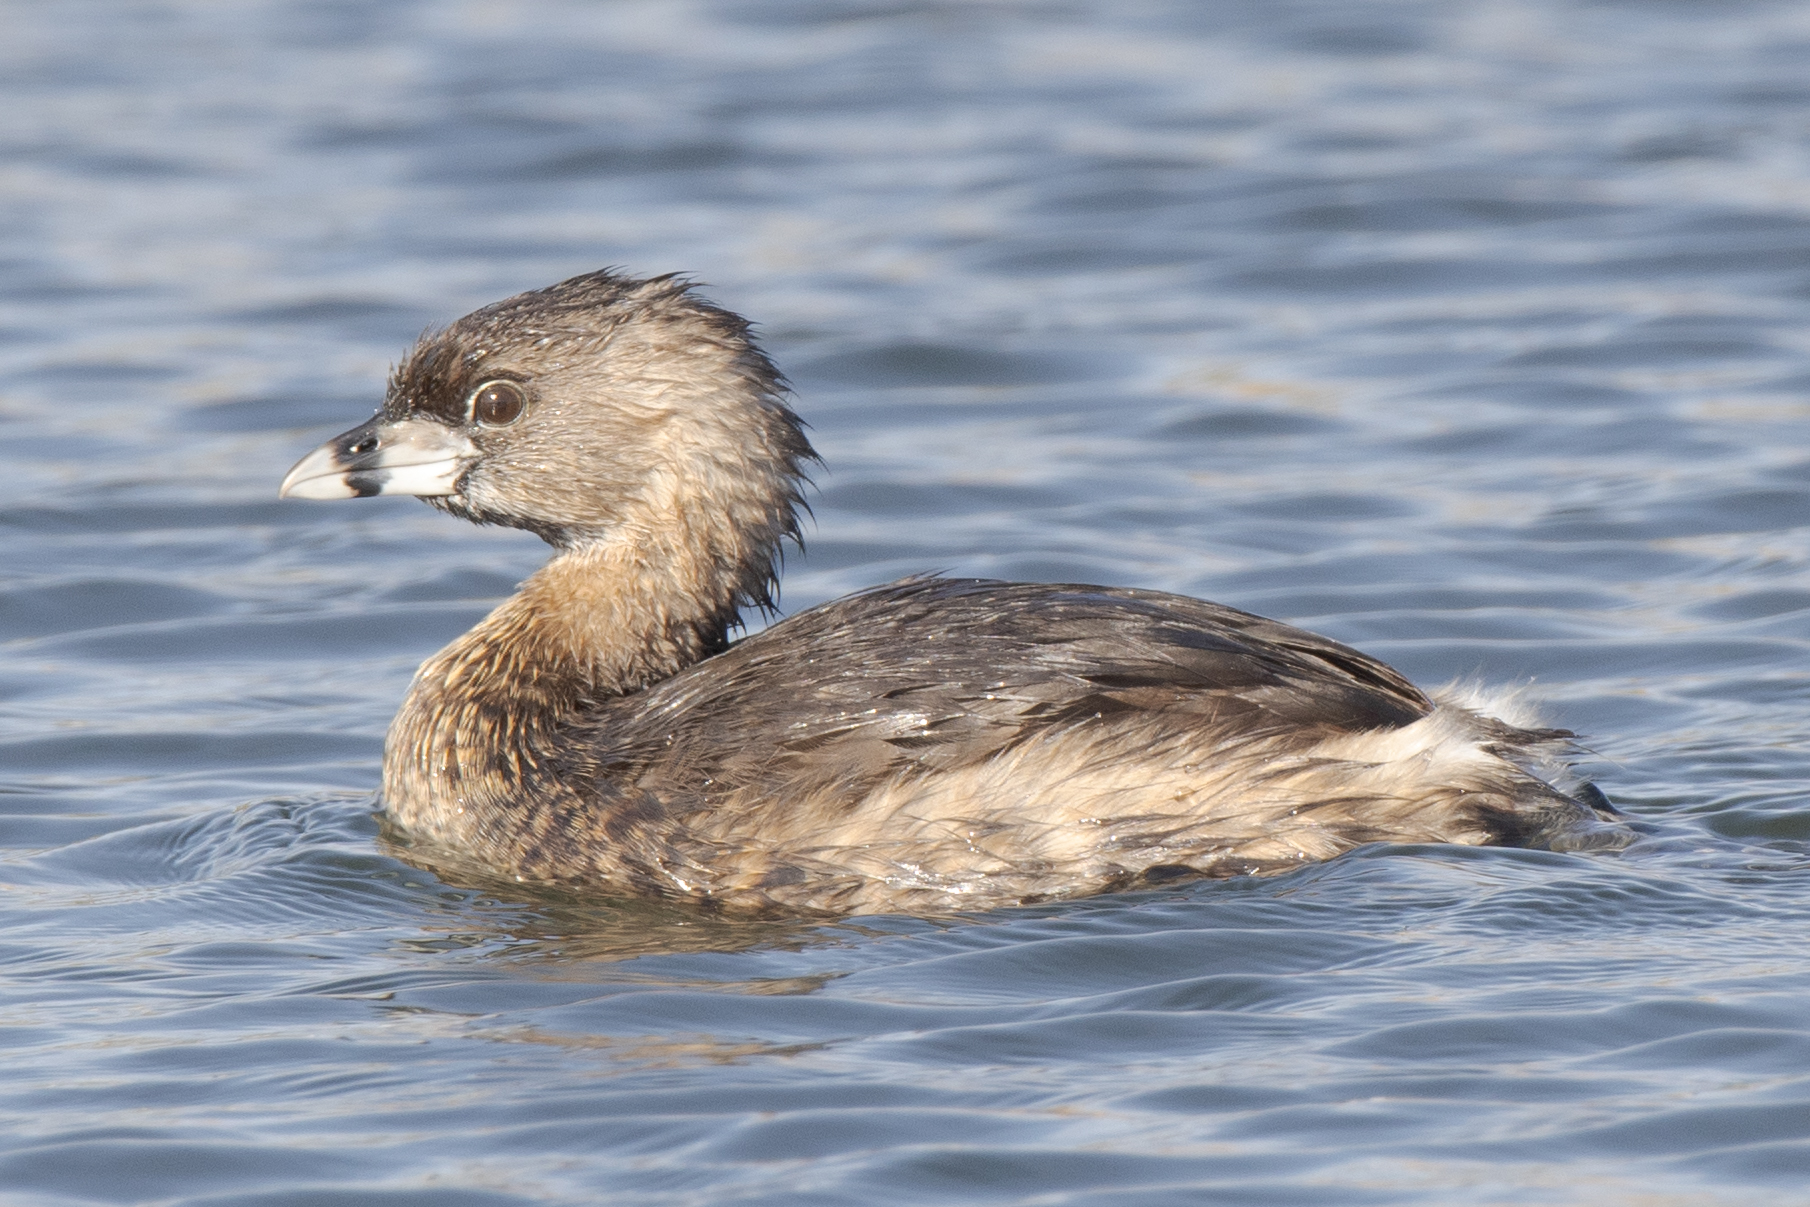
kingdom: Animalia
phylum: Chordata
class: Aves
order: Podicipediformes
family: Podicipedidae
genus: Podilymbus
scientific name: Podilymbus podiceps
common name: Pied-billed grebe
